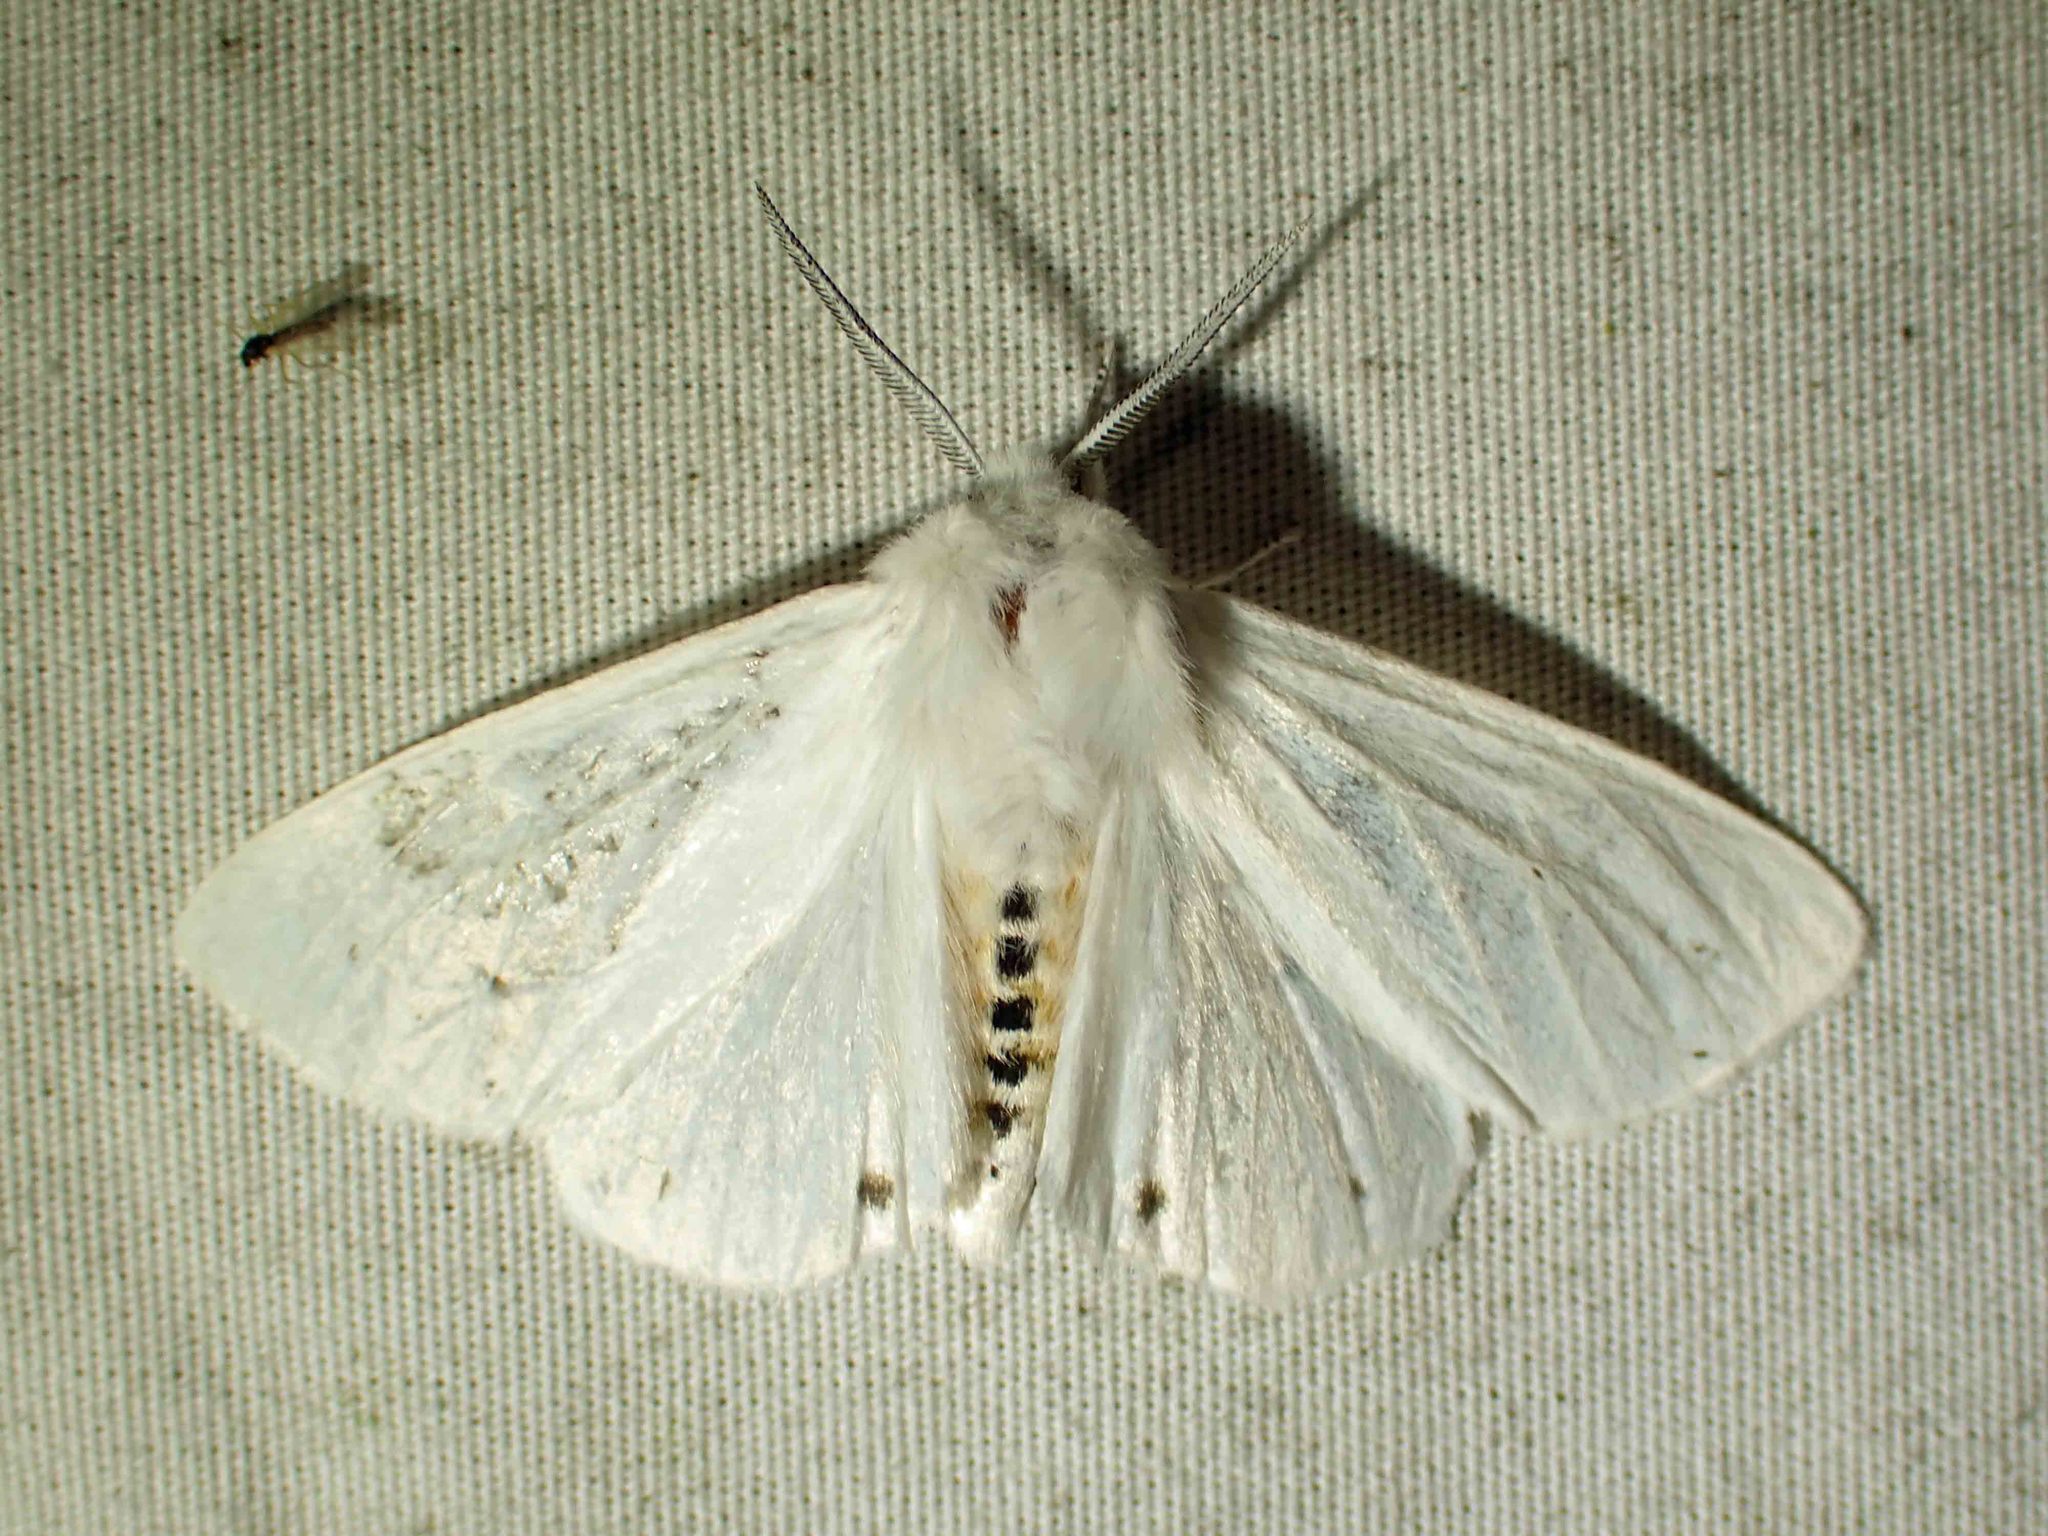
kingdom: Animalia
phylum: Arthropoda
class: Insecta
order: Lepidoptera
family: Erebidae
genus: Spilosoma
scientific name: Spilosoma virginica
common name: Virginia tiger moth
